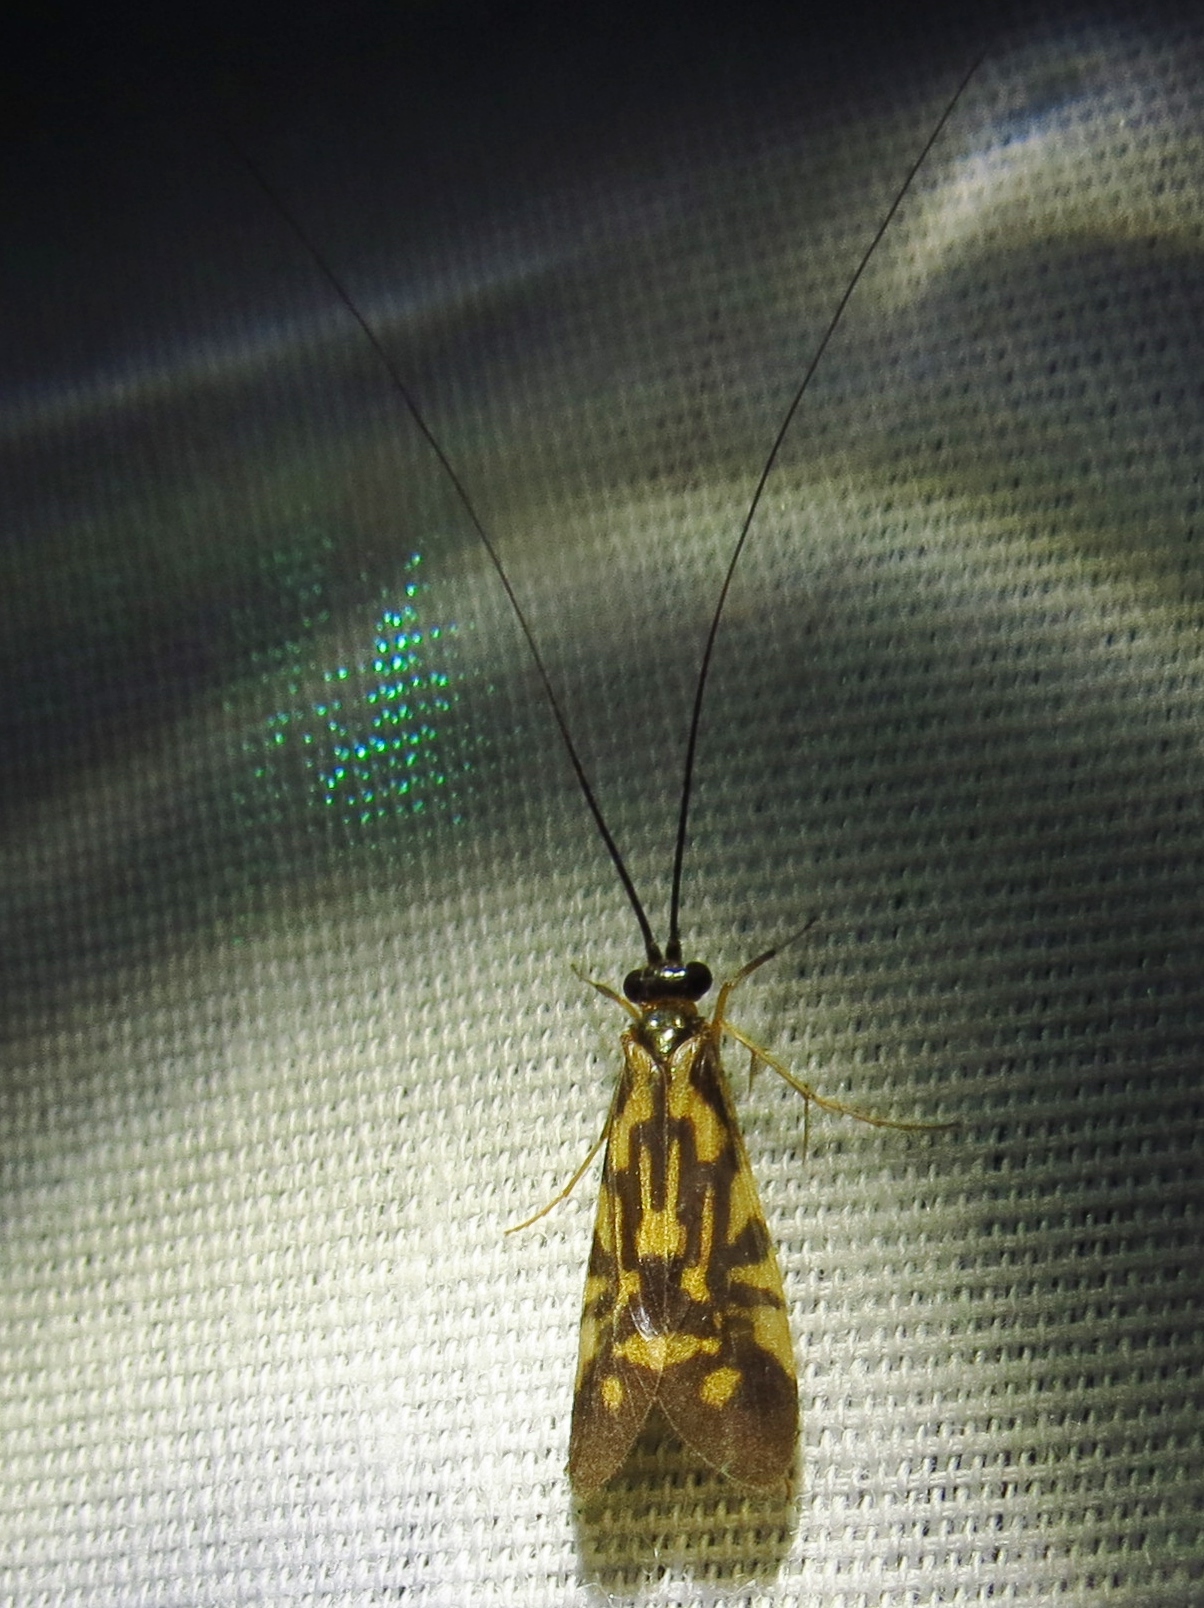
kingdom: Animalia
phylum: Arthropoda
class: Insecta
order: Trichoptera
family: Hydropsychidae
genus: Macrostemum
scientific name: Macrostemum carolina
